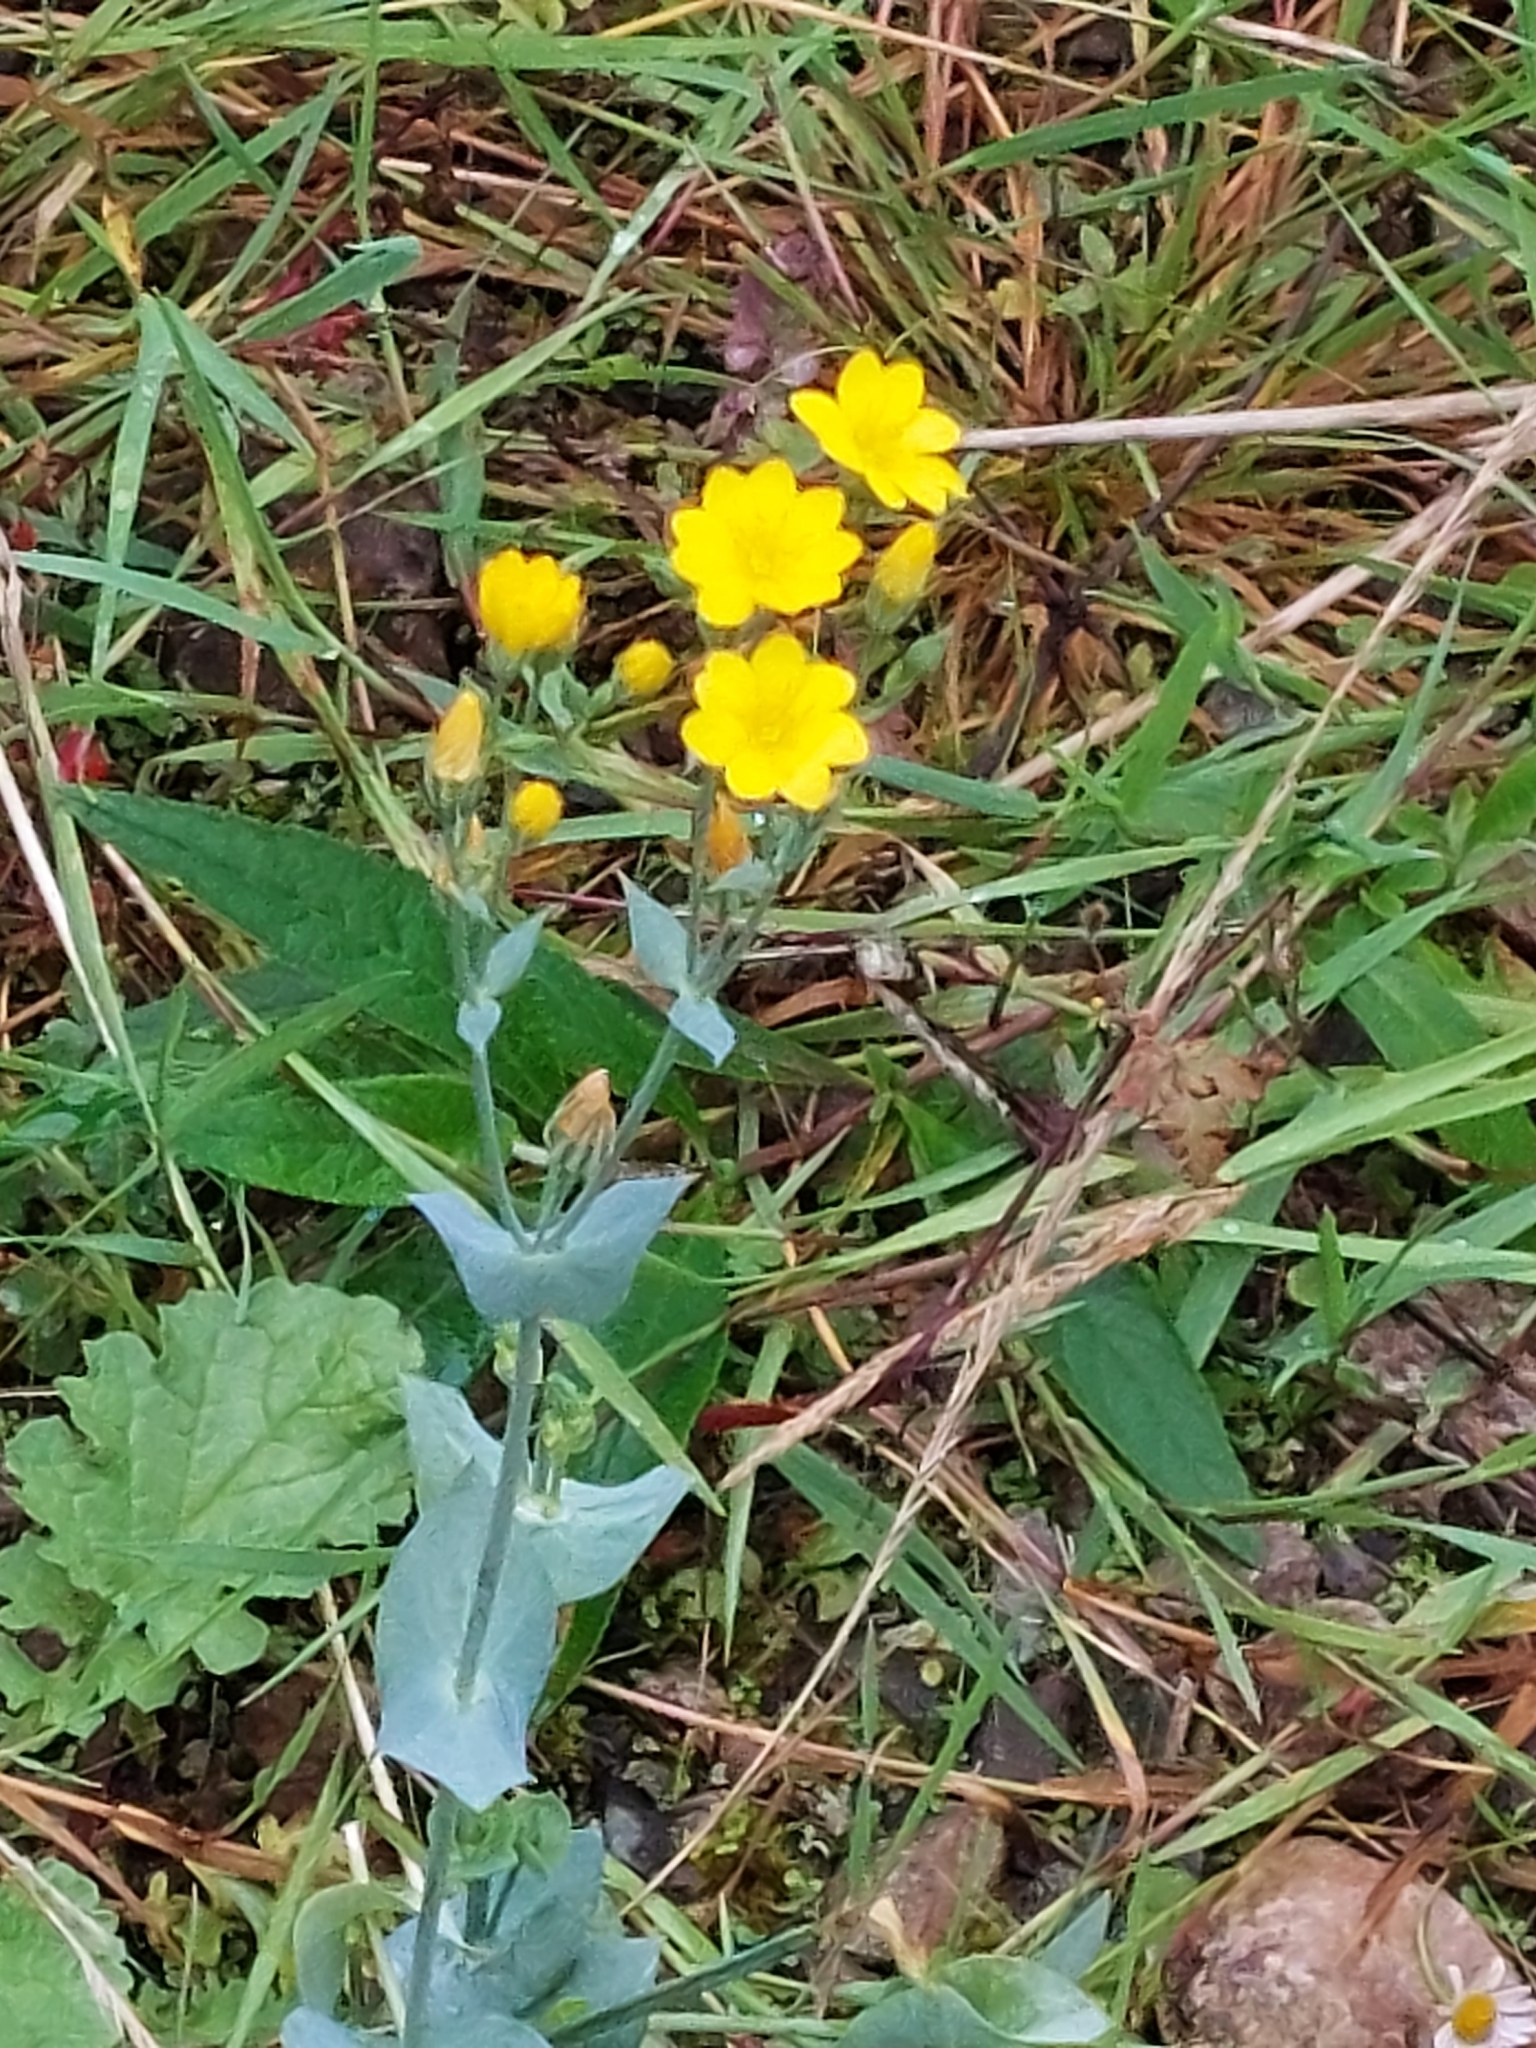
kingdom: Plantae
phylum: Tracheophyta
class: Magnoliopsida
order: Gentianales
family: Gentianaceae
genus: Blackstonia
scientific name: Blackstonia perfoliata
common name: Yellow-wort
